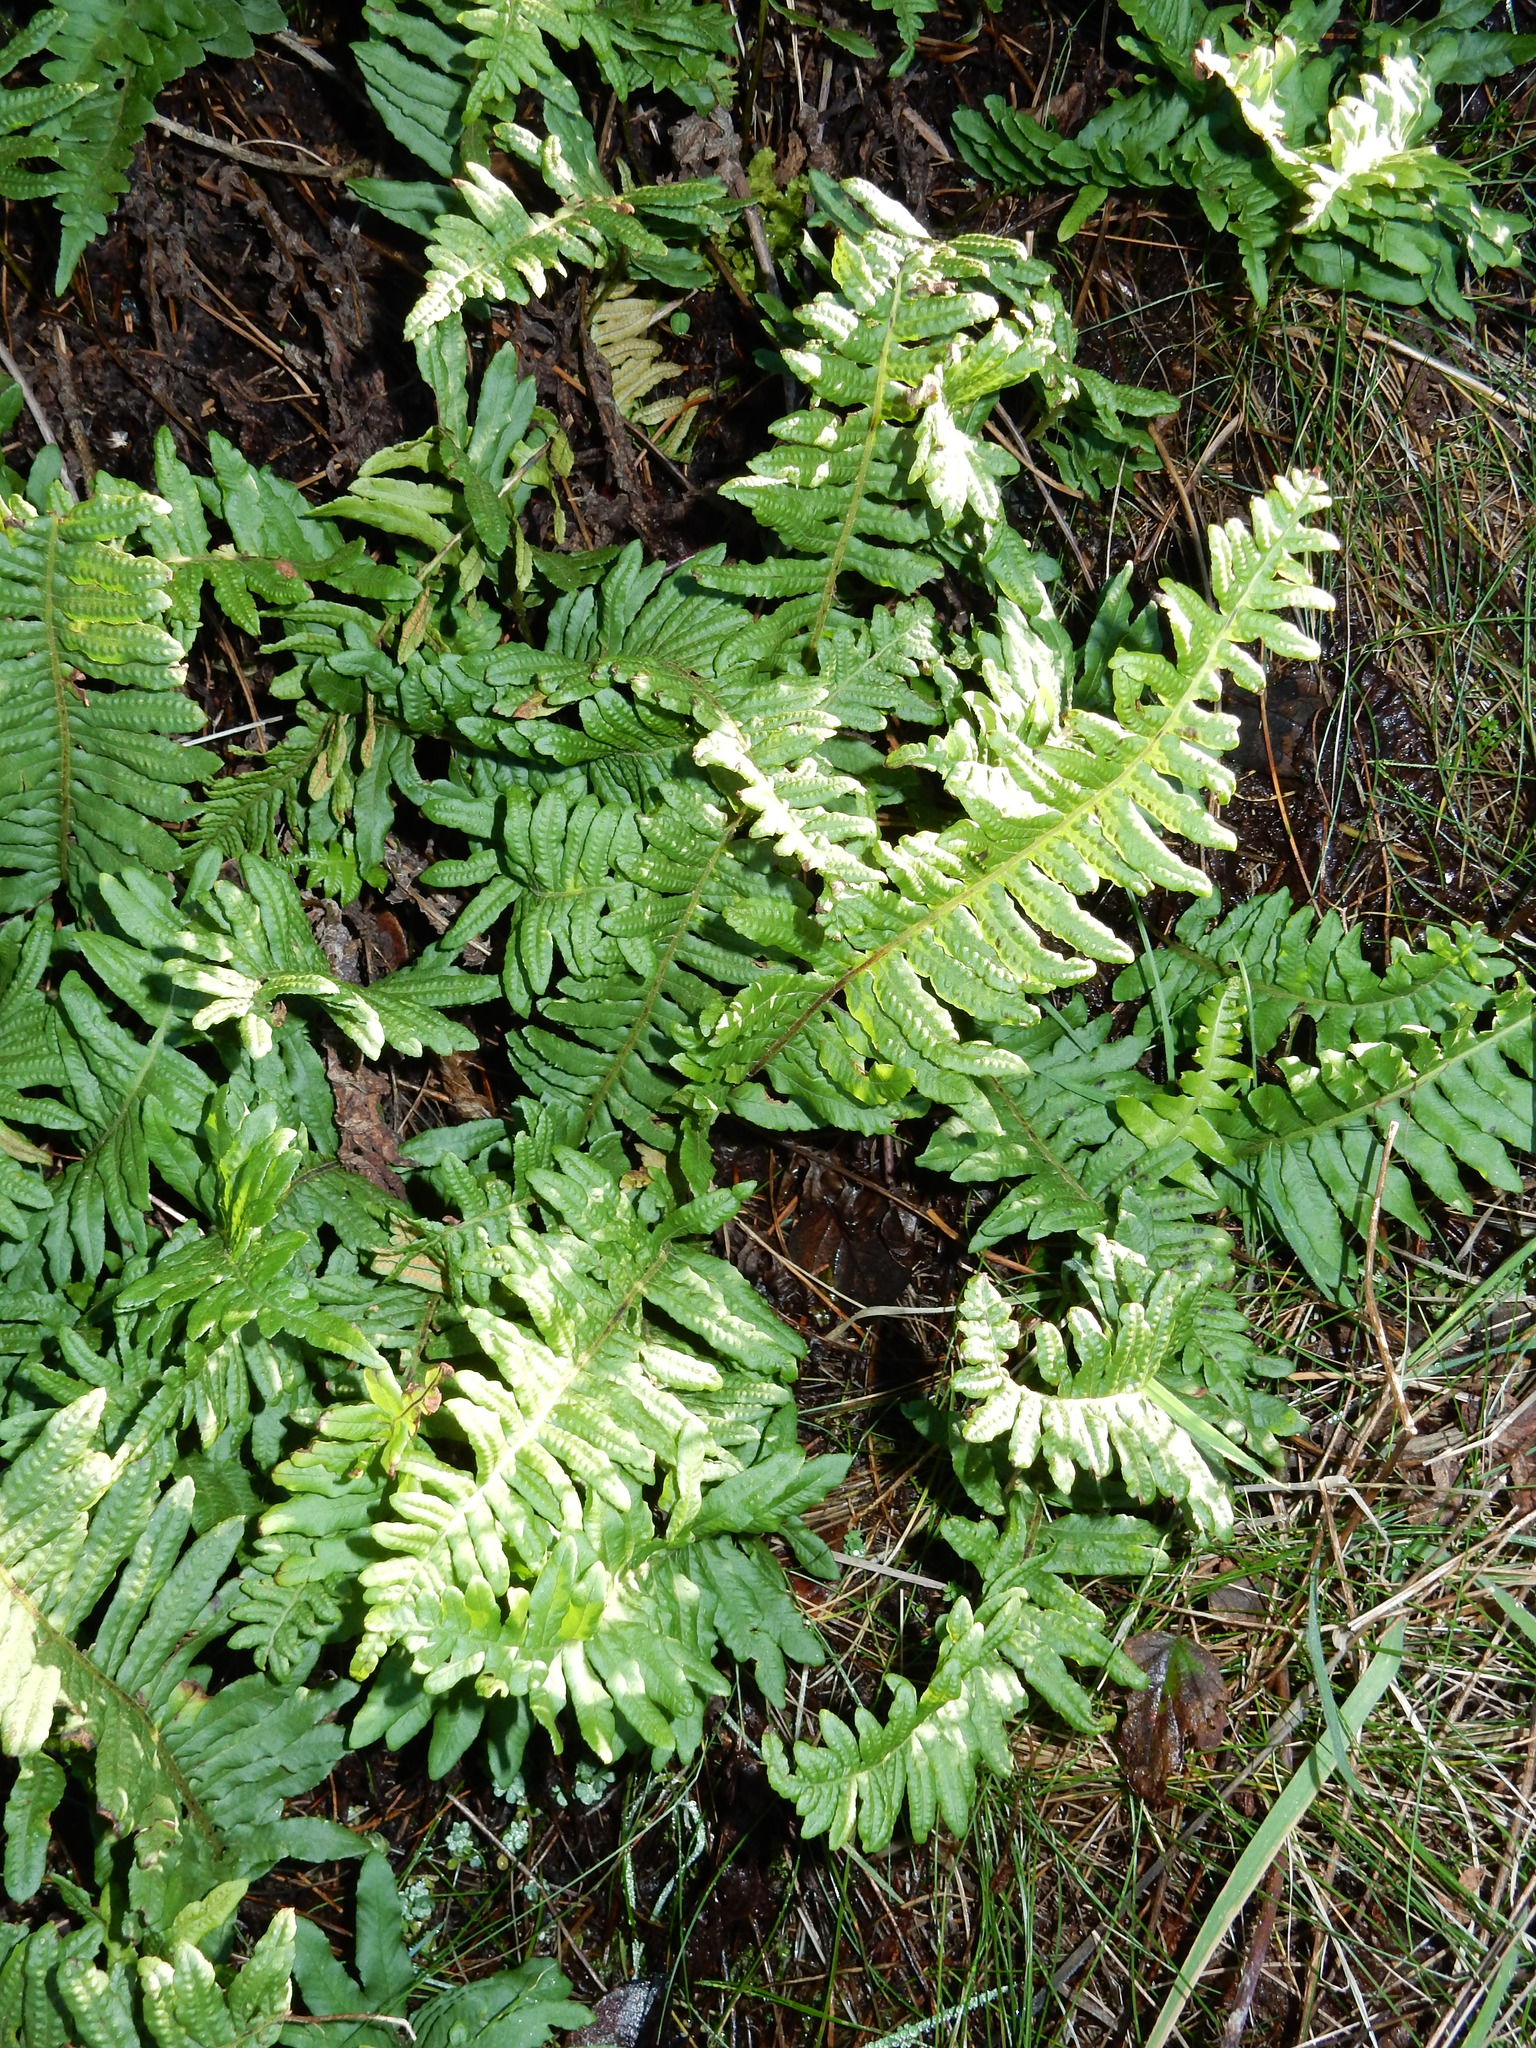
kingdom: Plantae
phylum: Tracheophyta
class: Polypodiopsida
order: Polypodiales
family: Polypodiaceae
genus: Polypodium
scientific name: Polypodium calirhiza
